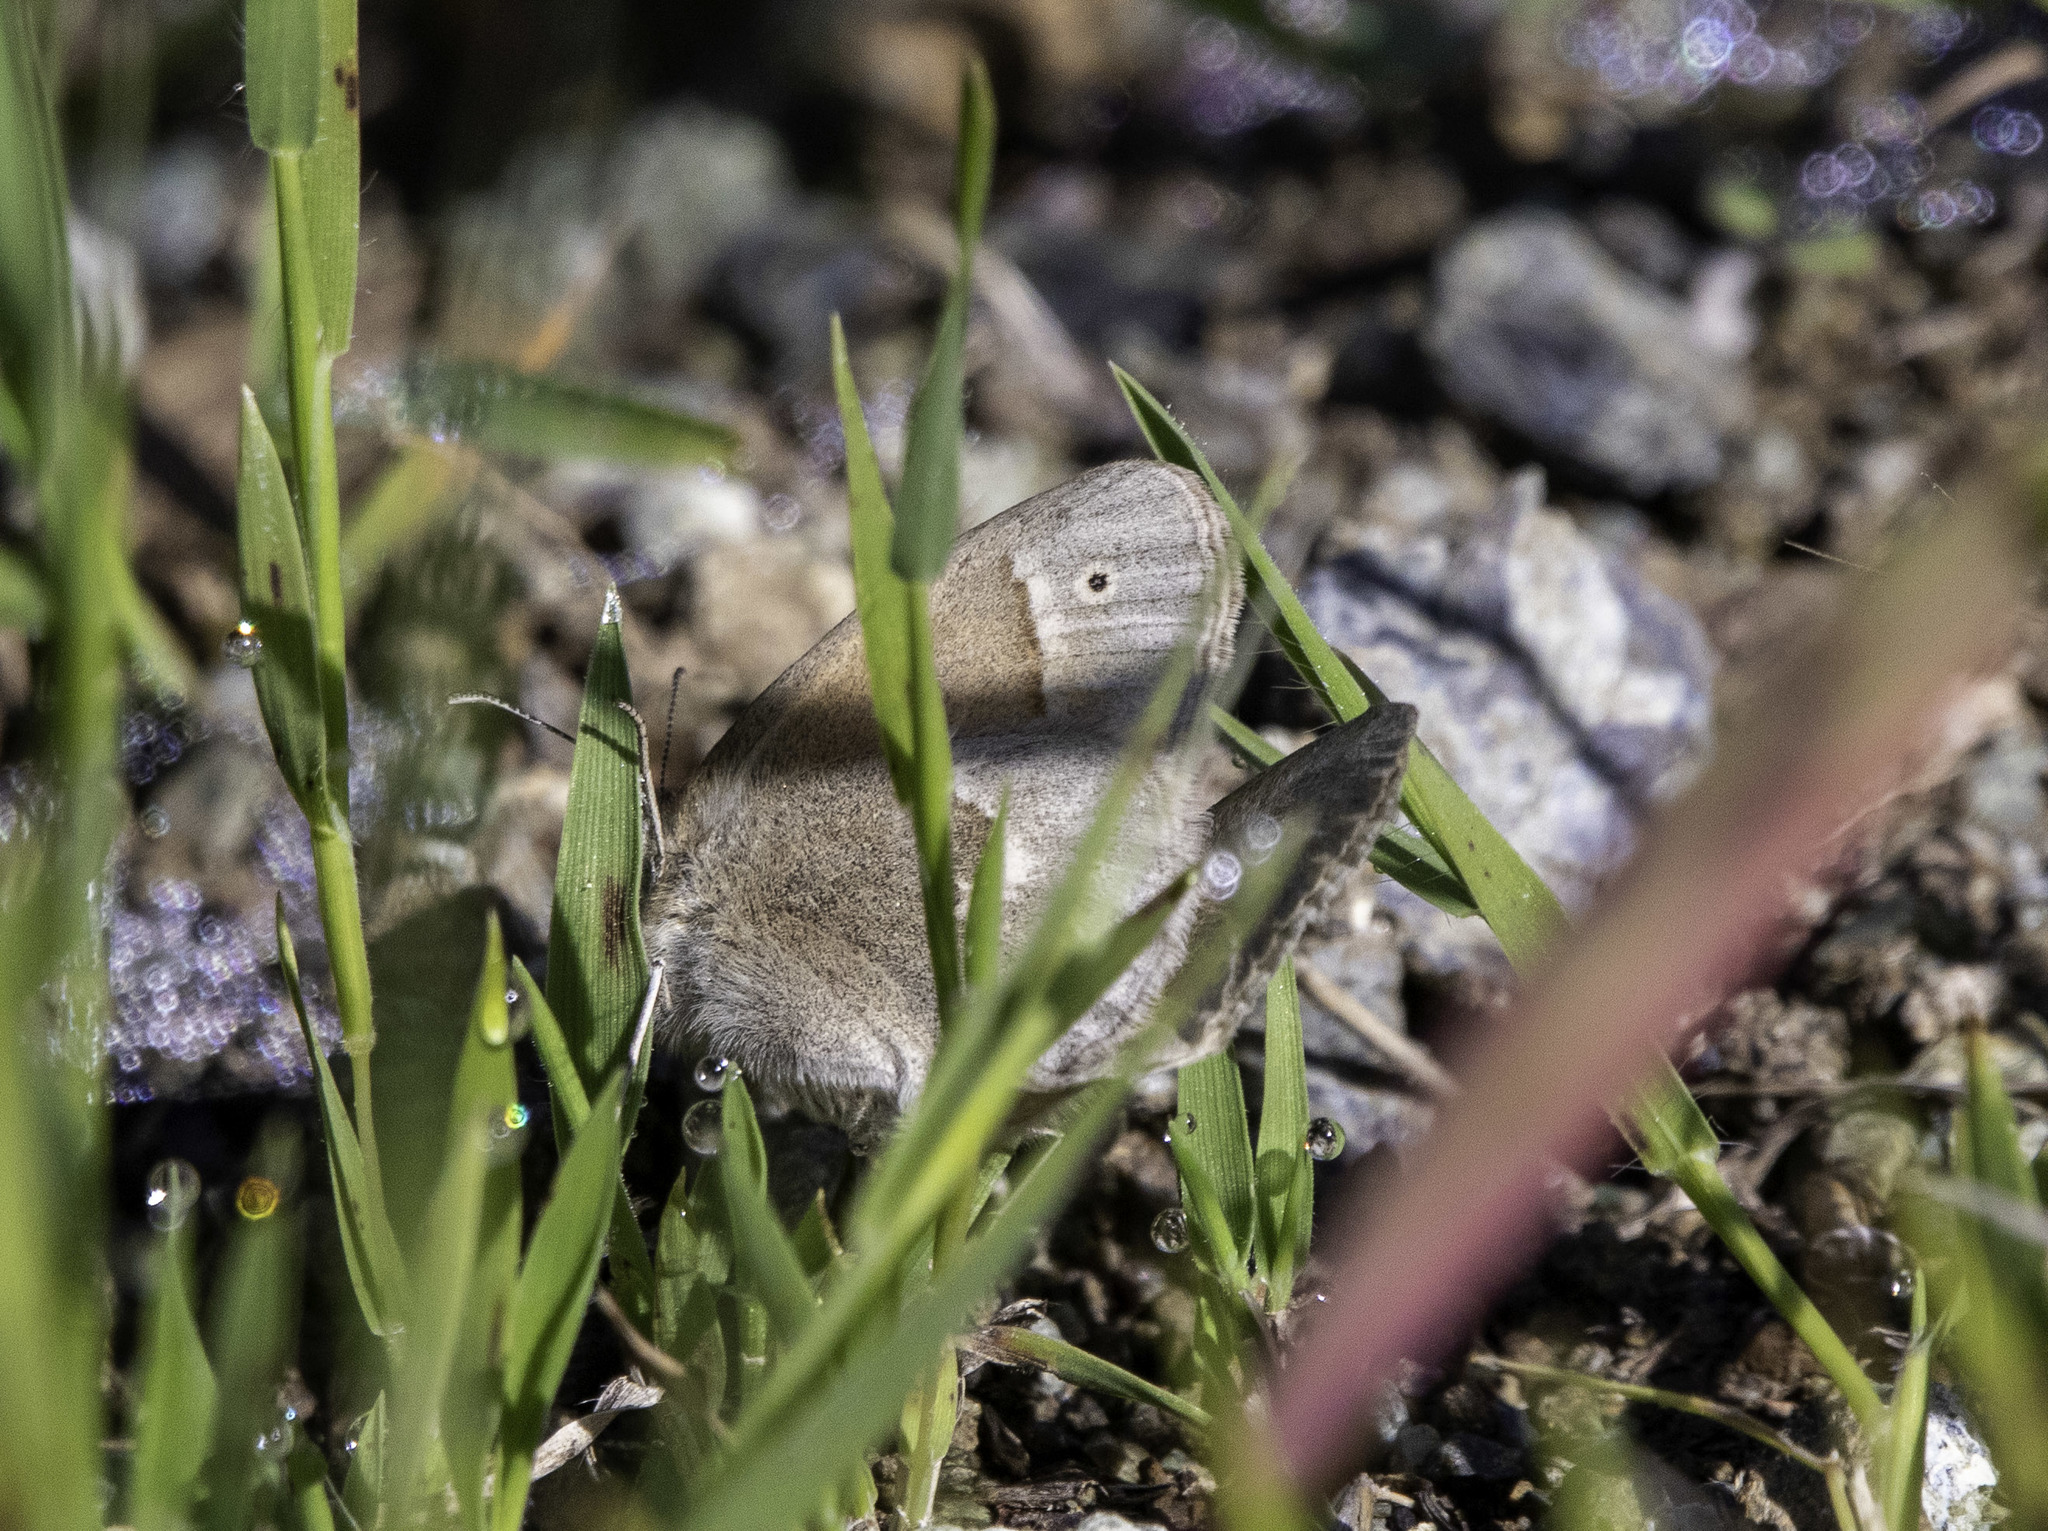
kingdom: Animalia
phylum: Arthropoda
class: Insecta
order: Lepidoptera
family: Nymphalidae
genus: Coenonympha
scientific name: Coenonympha california
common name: Common ringlet
